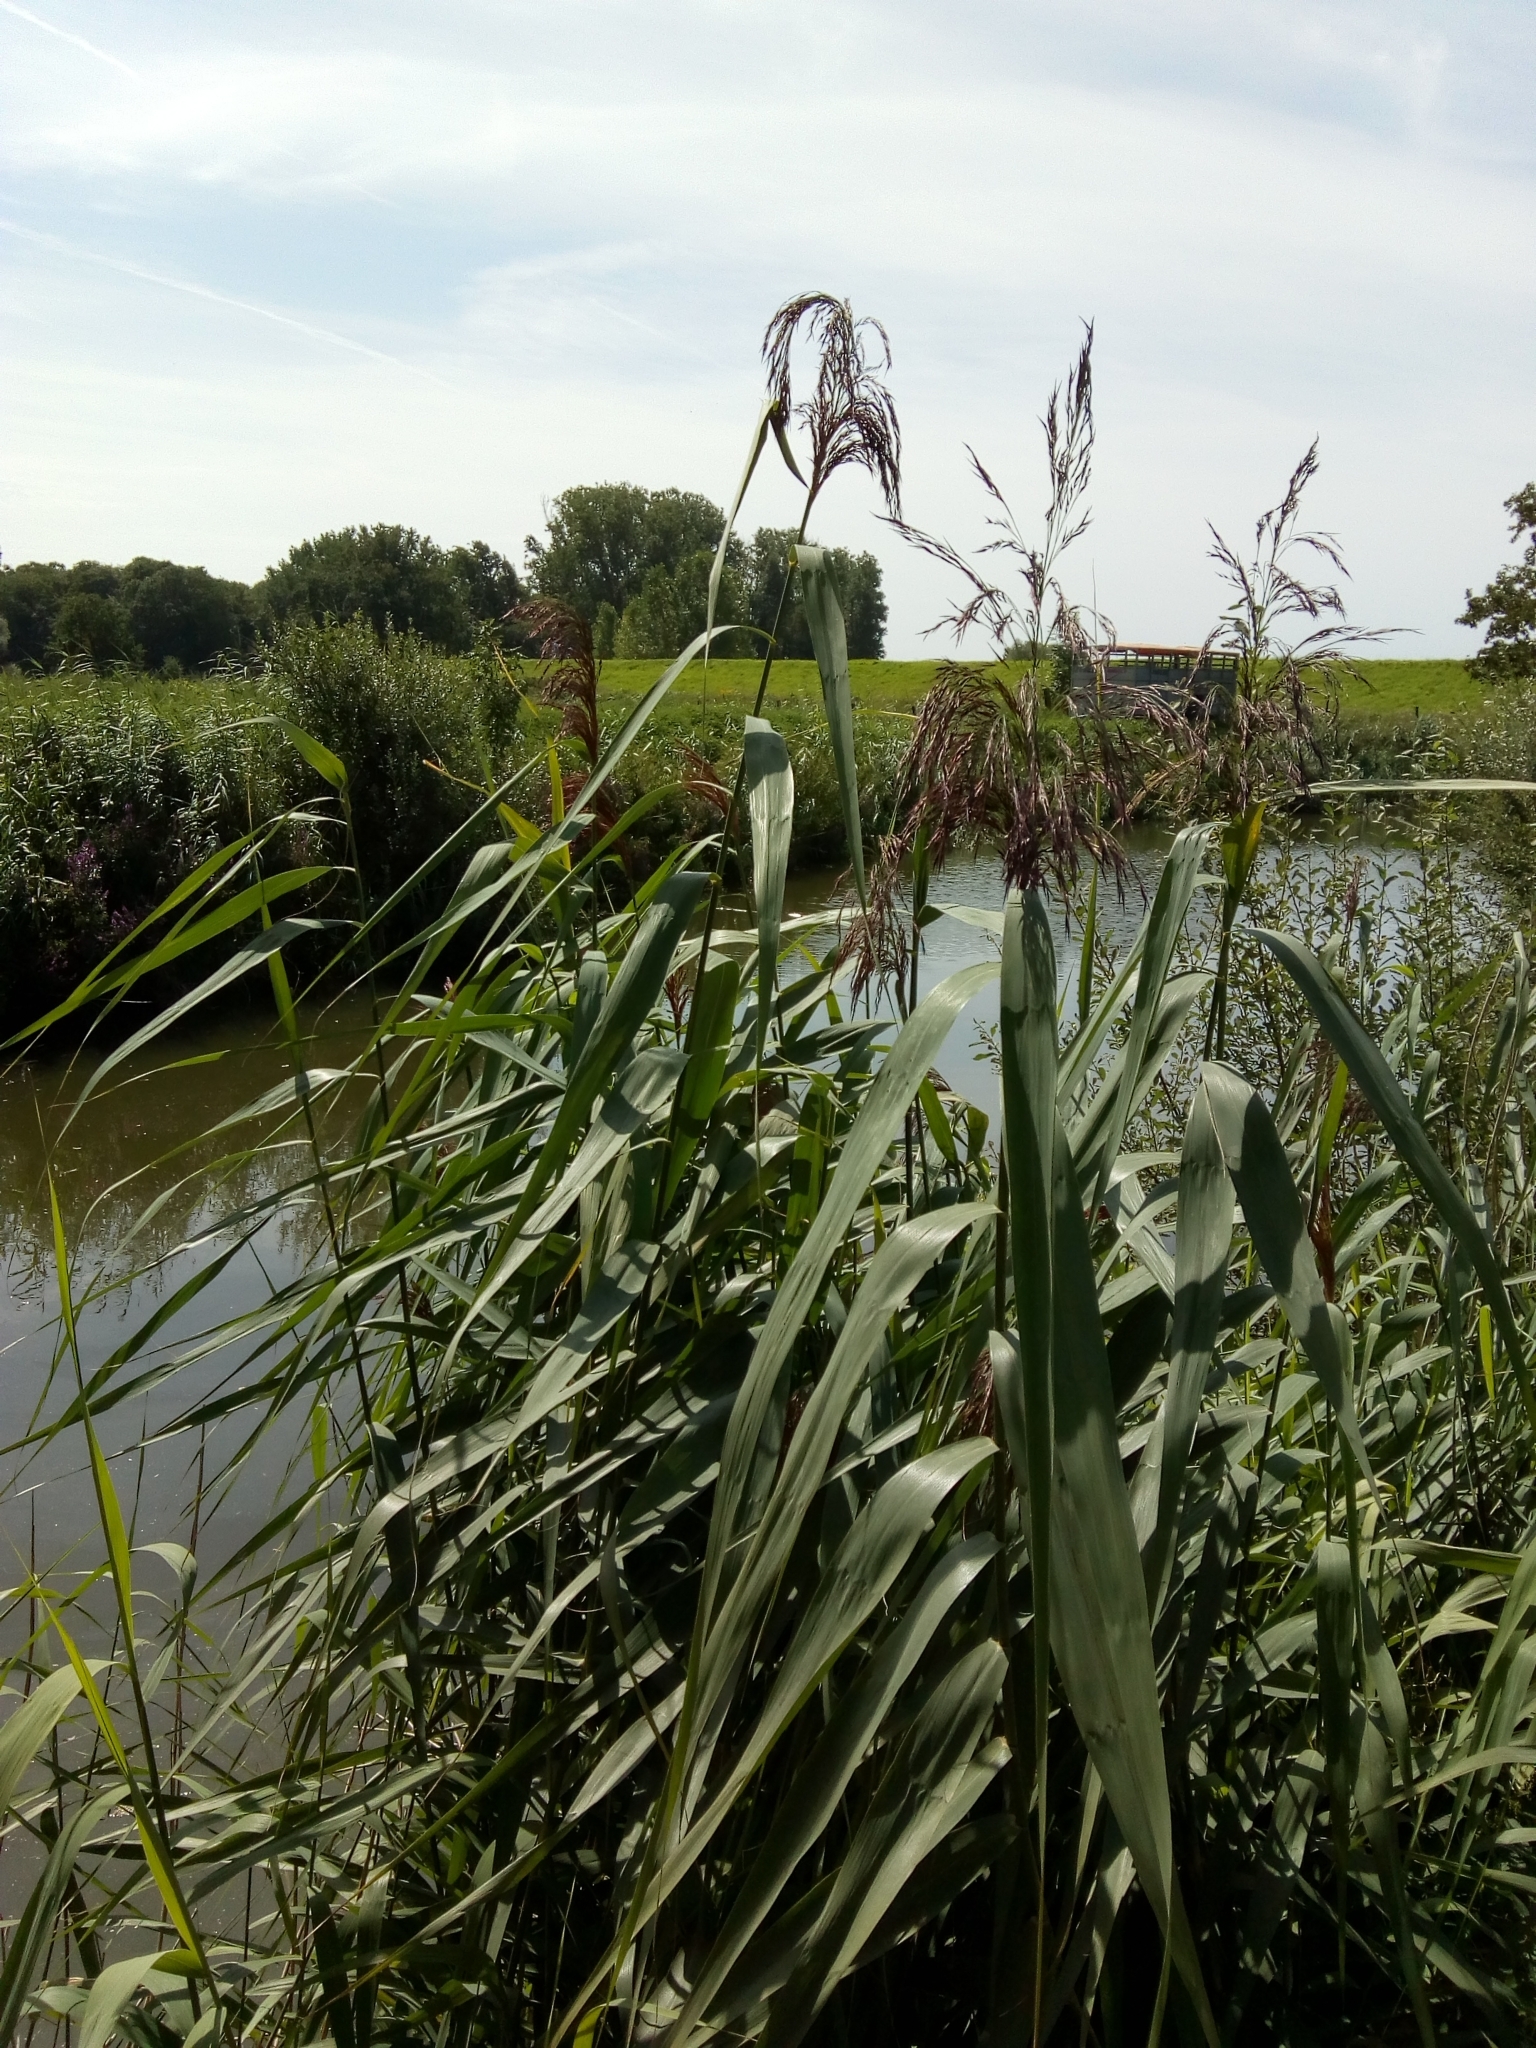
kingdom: Plantae
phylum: Tracheophyta
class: Liliopsida
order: Poales
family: Poaceae
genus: Phragmites
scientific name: Phragmites australis
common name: Common reed
